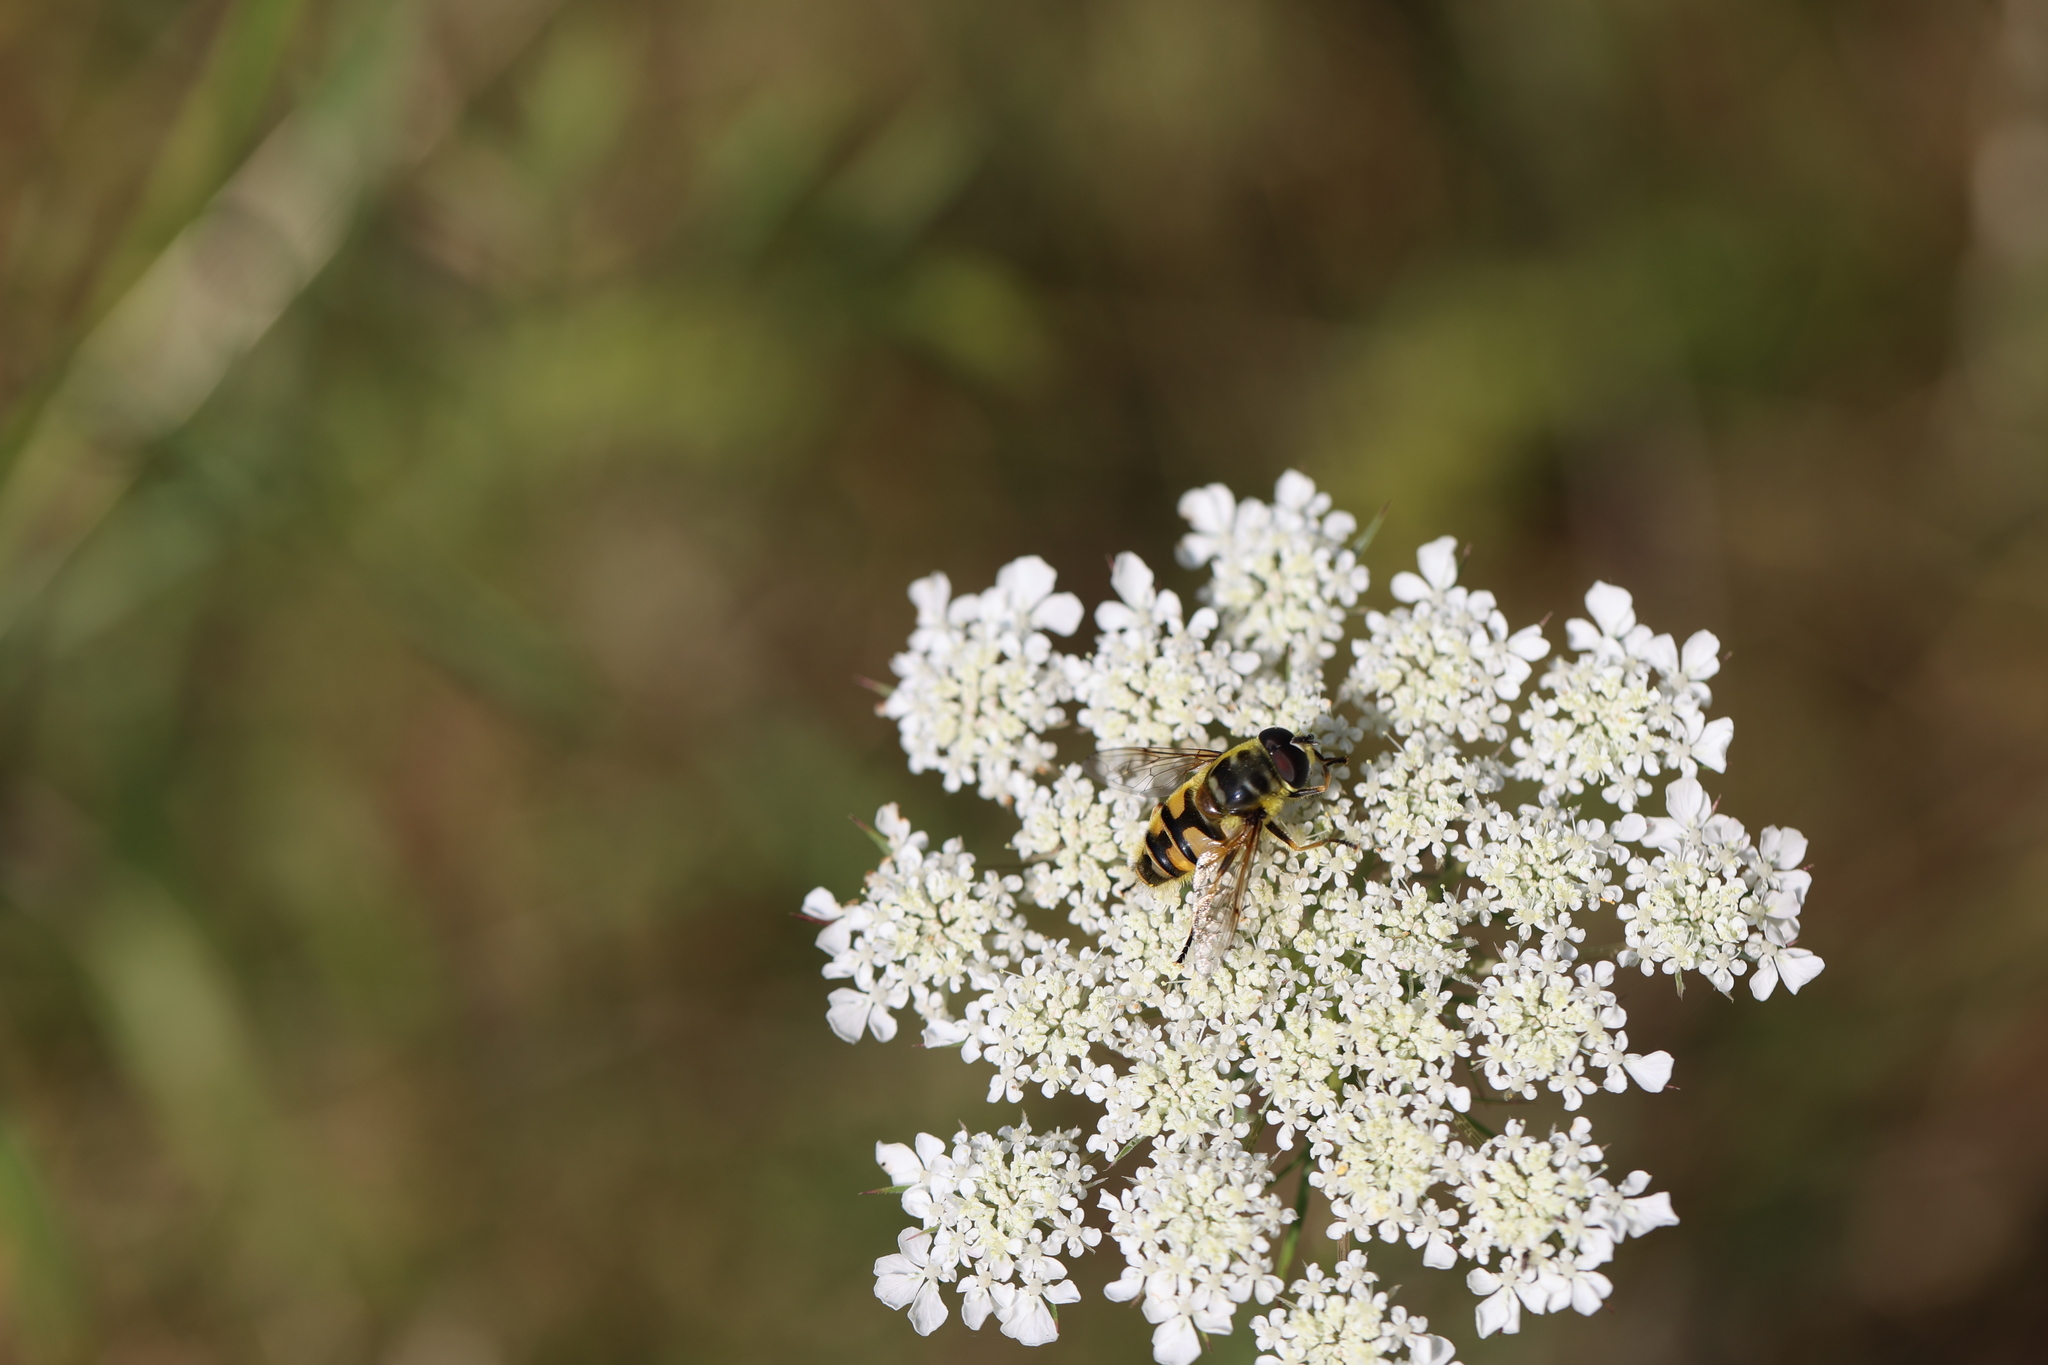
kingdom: Animalia
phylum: Arthropoda
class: Insecta
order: Diptera
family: Syrphidae
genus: Myathropa
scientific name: Myathropa florea
